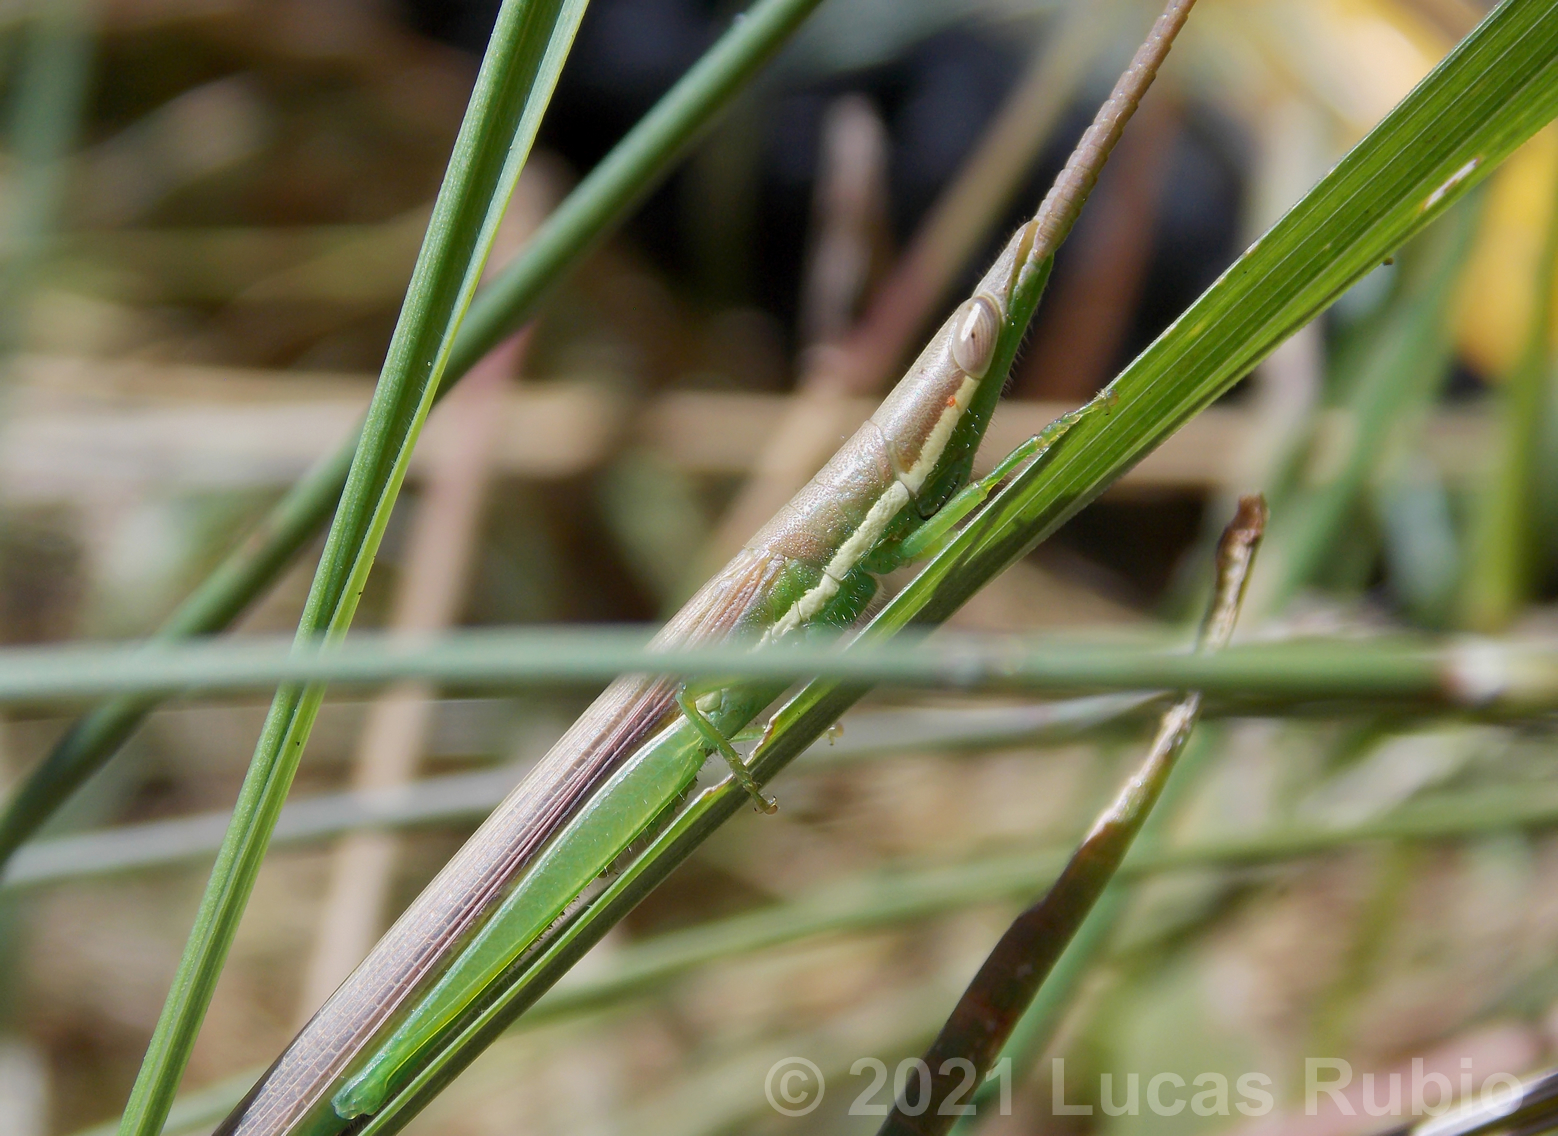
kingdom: Animalia
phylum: Arthropoda
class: Insecta
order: Orthoptera
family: Acrididae
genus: Leptysma
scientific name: Leptysma argentina
